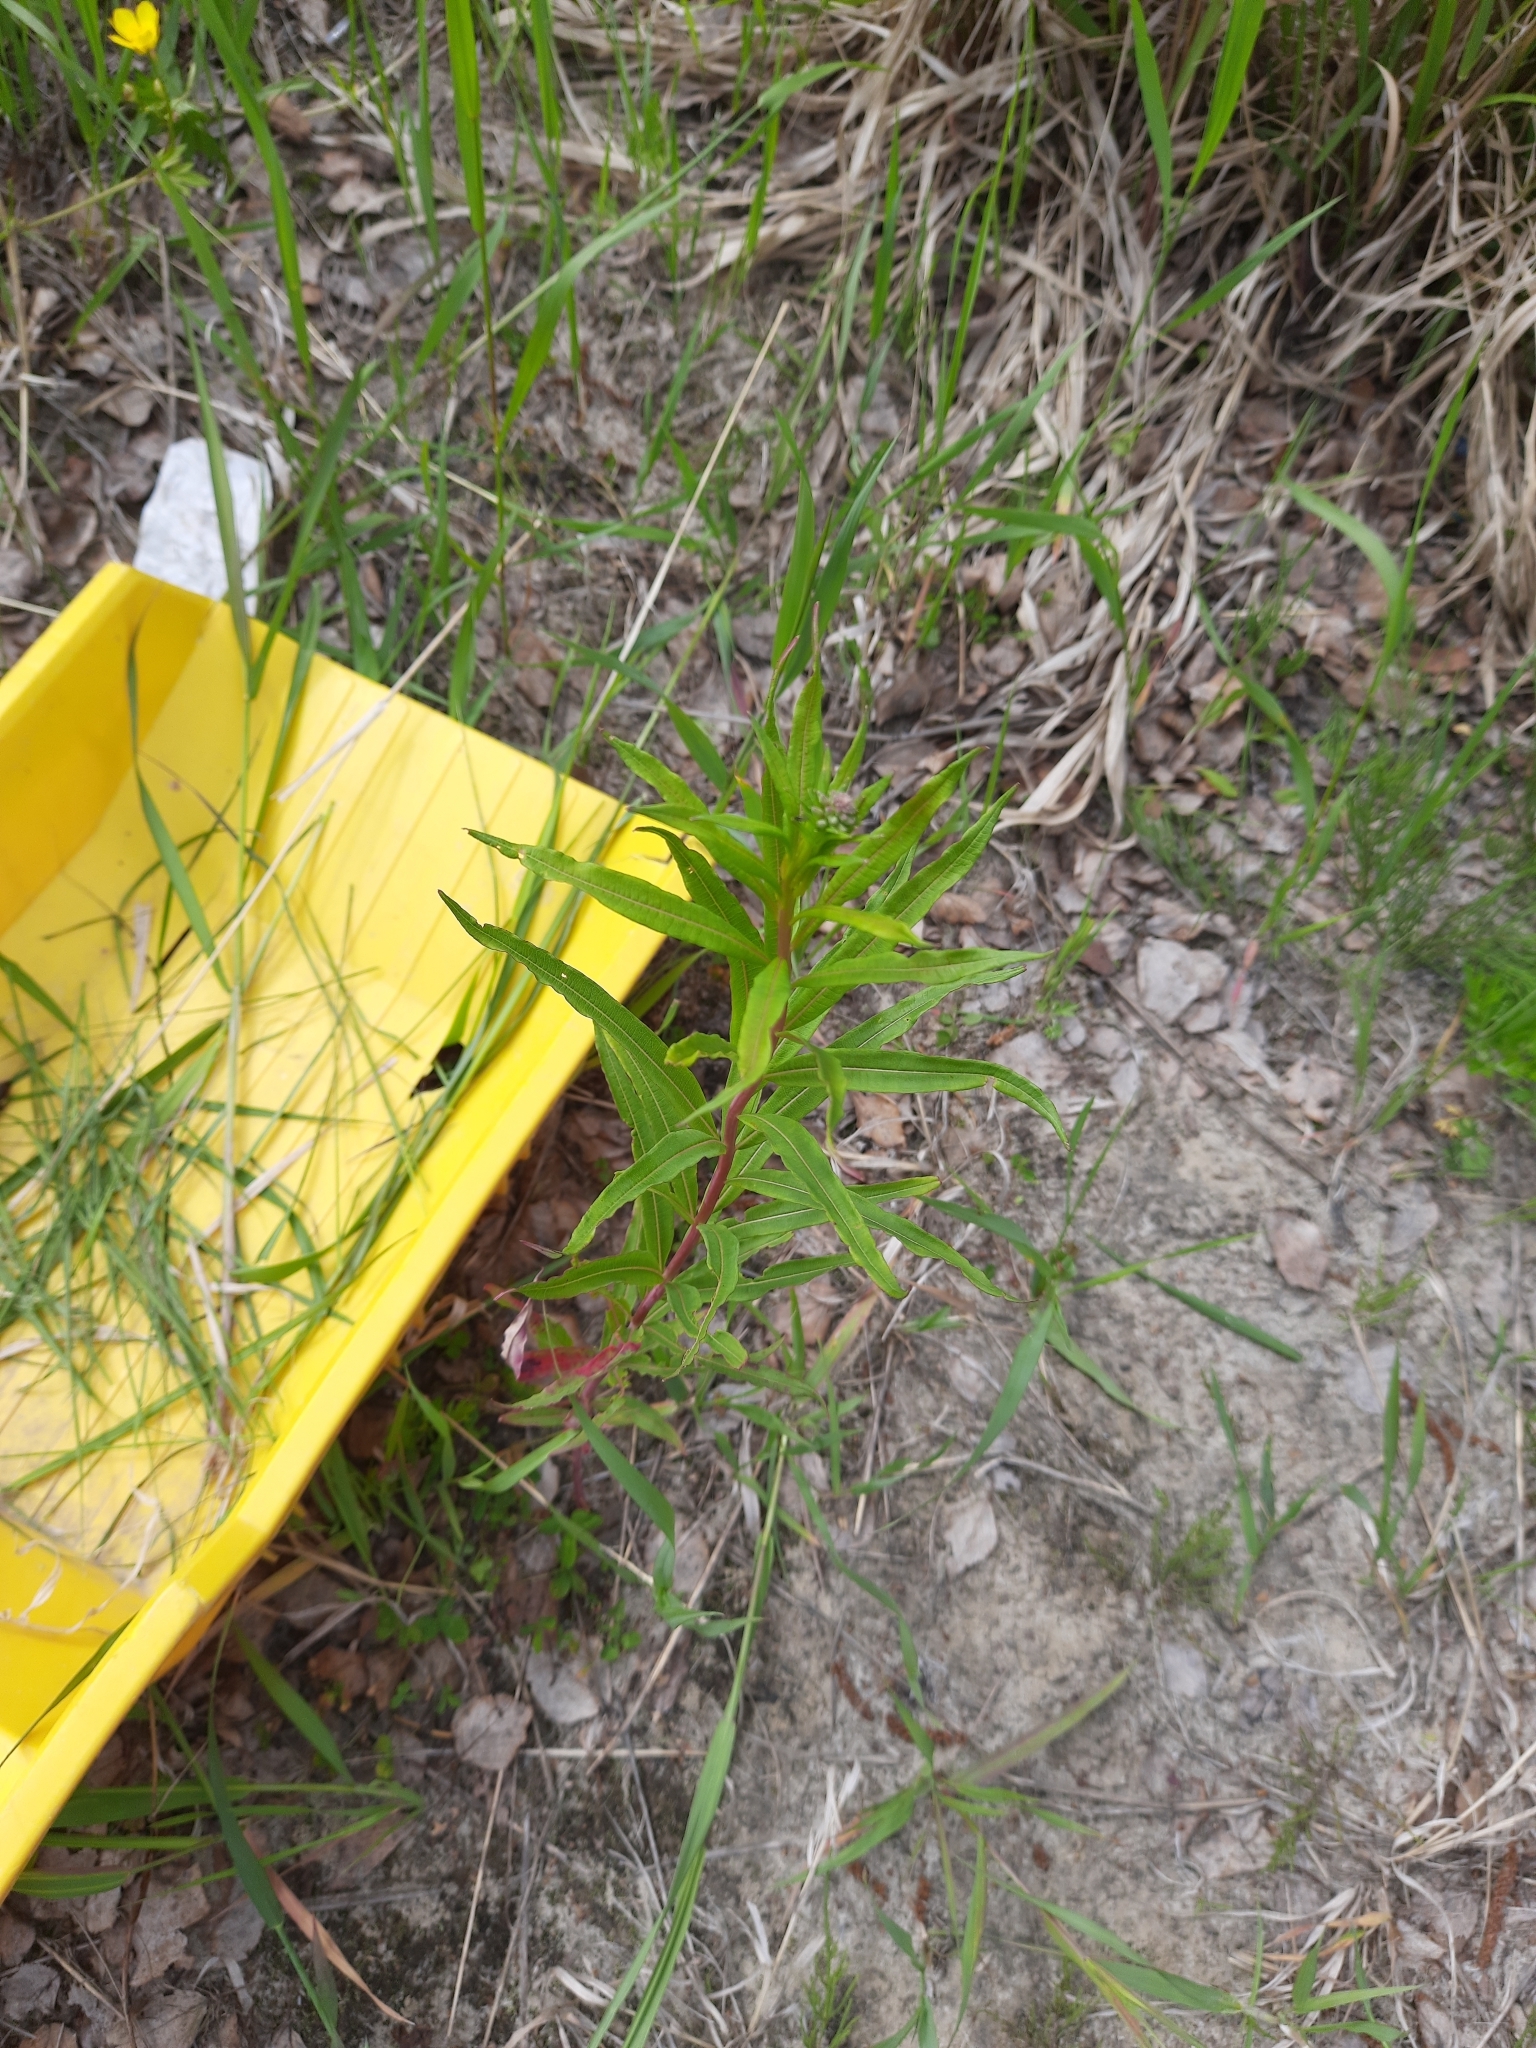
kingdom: Plantae
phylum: Tracheophyta
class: Magnoliopsida
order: Myrtales
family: Onagraceae
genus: Chamaenerion
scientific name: Chamaenerion angustifolium
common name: Fireweed
